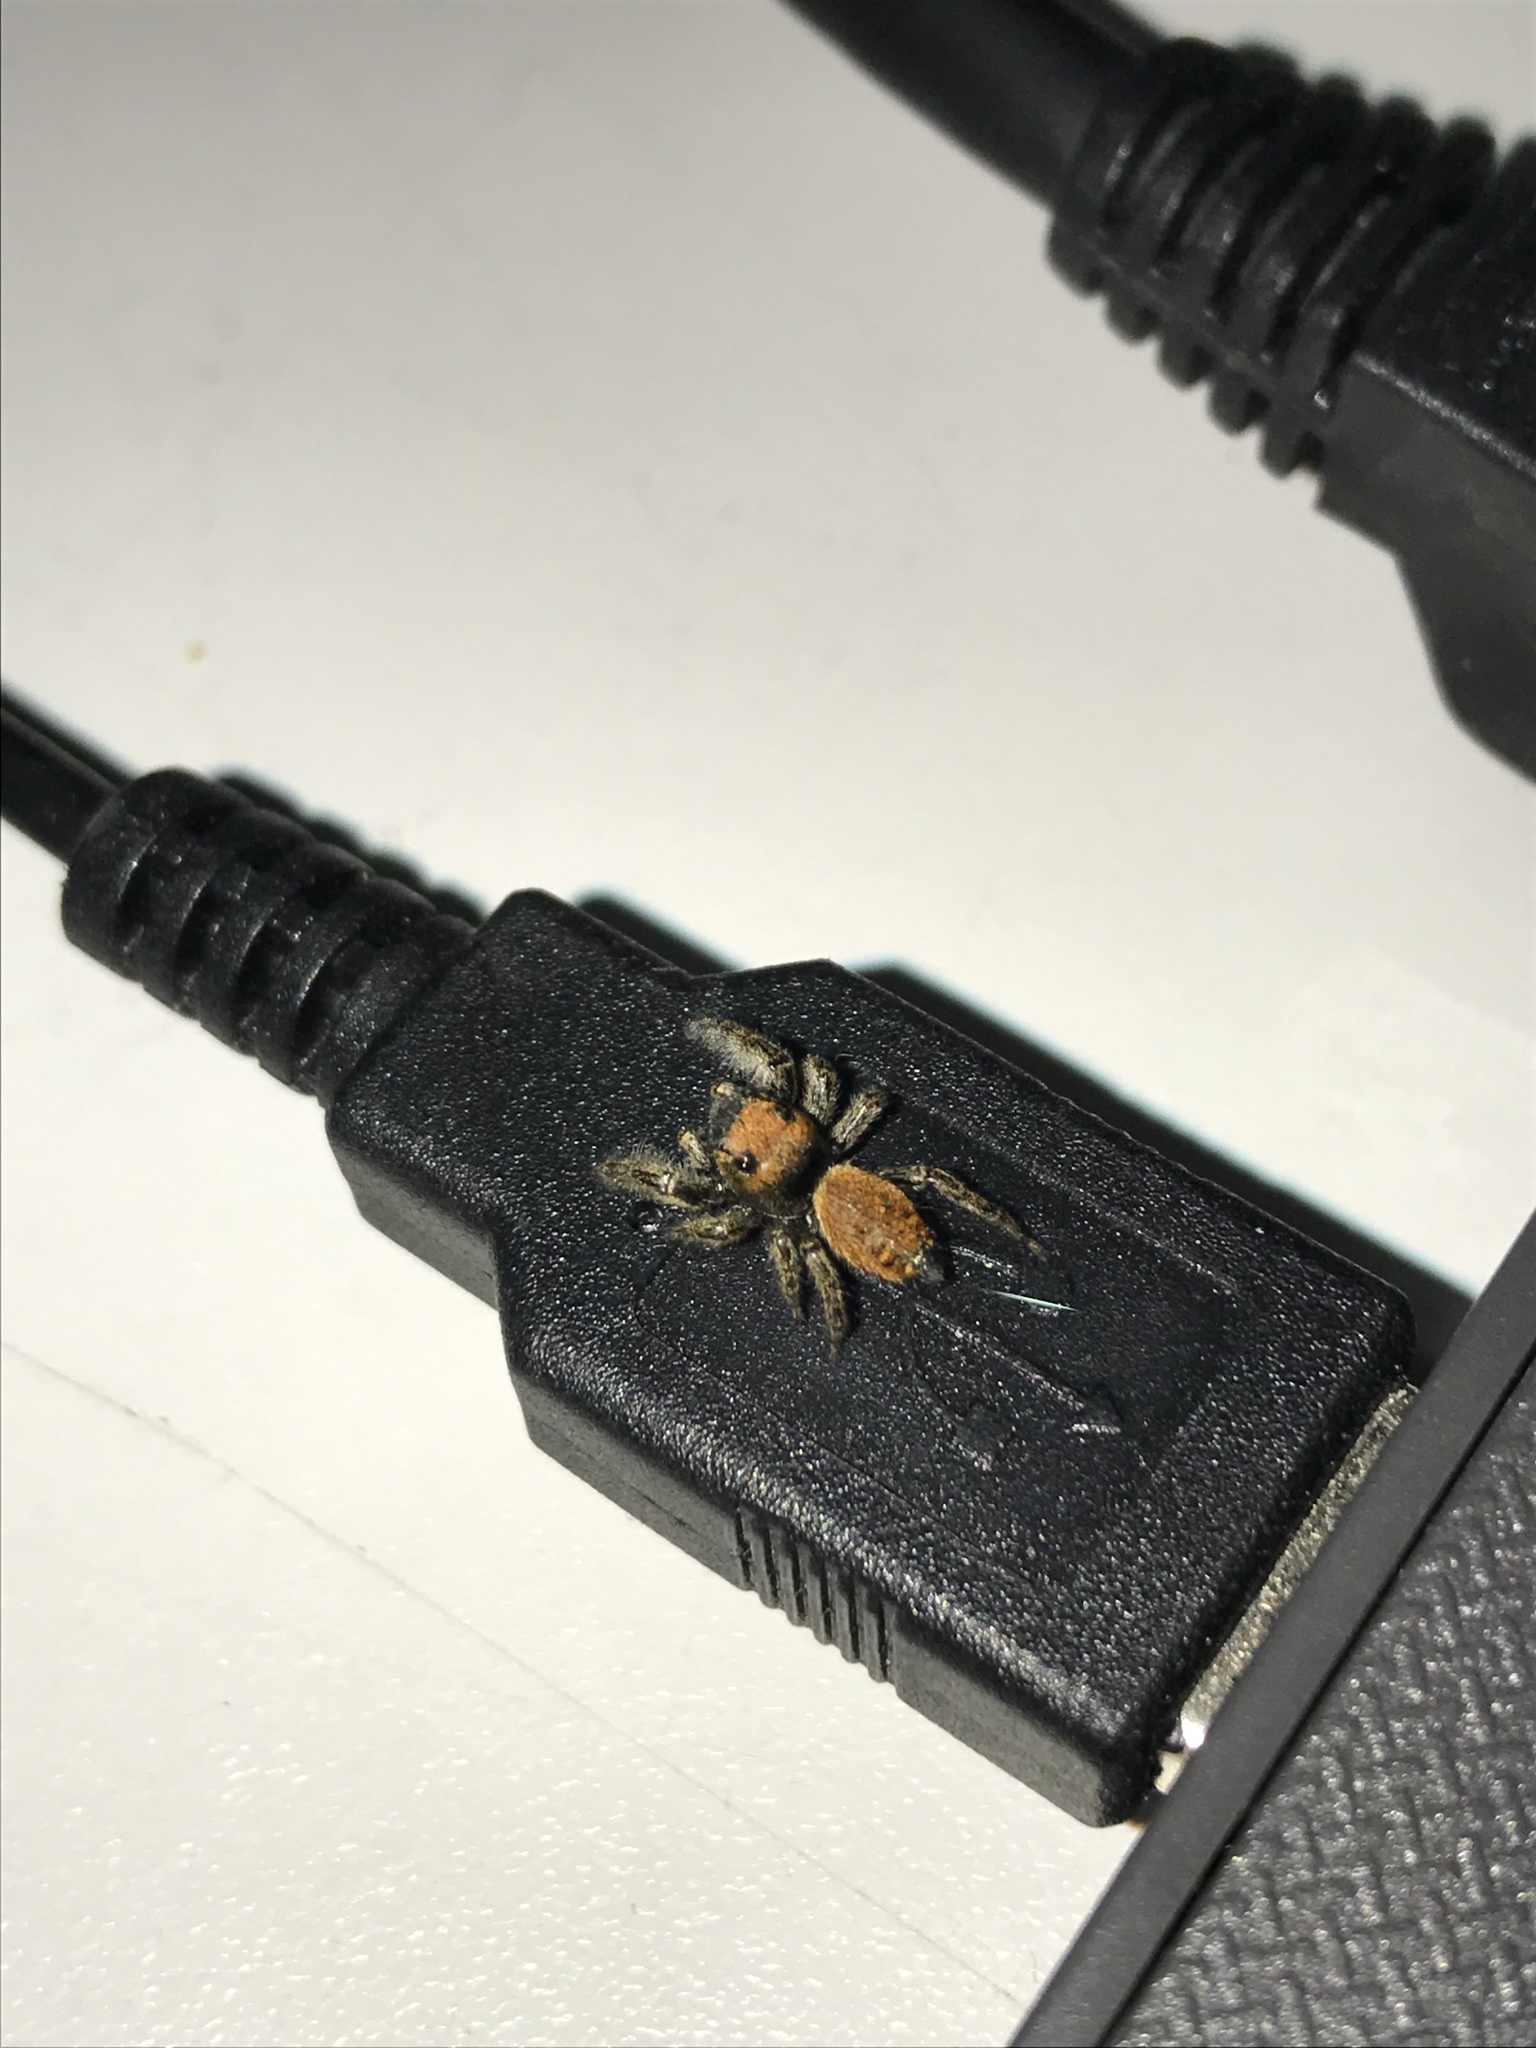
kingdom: Animalia
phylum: Arthropoda
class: Arachnida
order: Araneae
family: Salticidae
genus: Phidippus
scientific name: Phidippus whitmani
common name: Whitman's jumping spider
